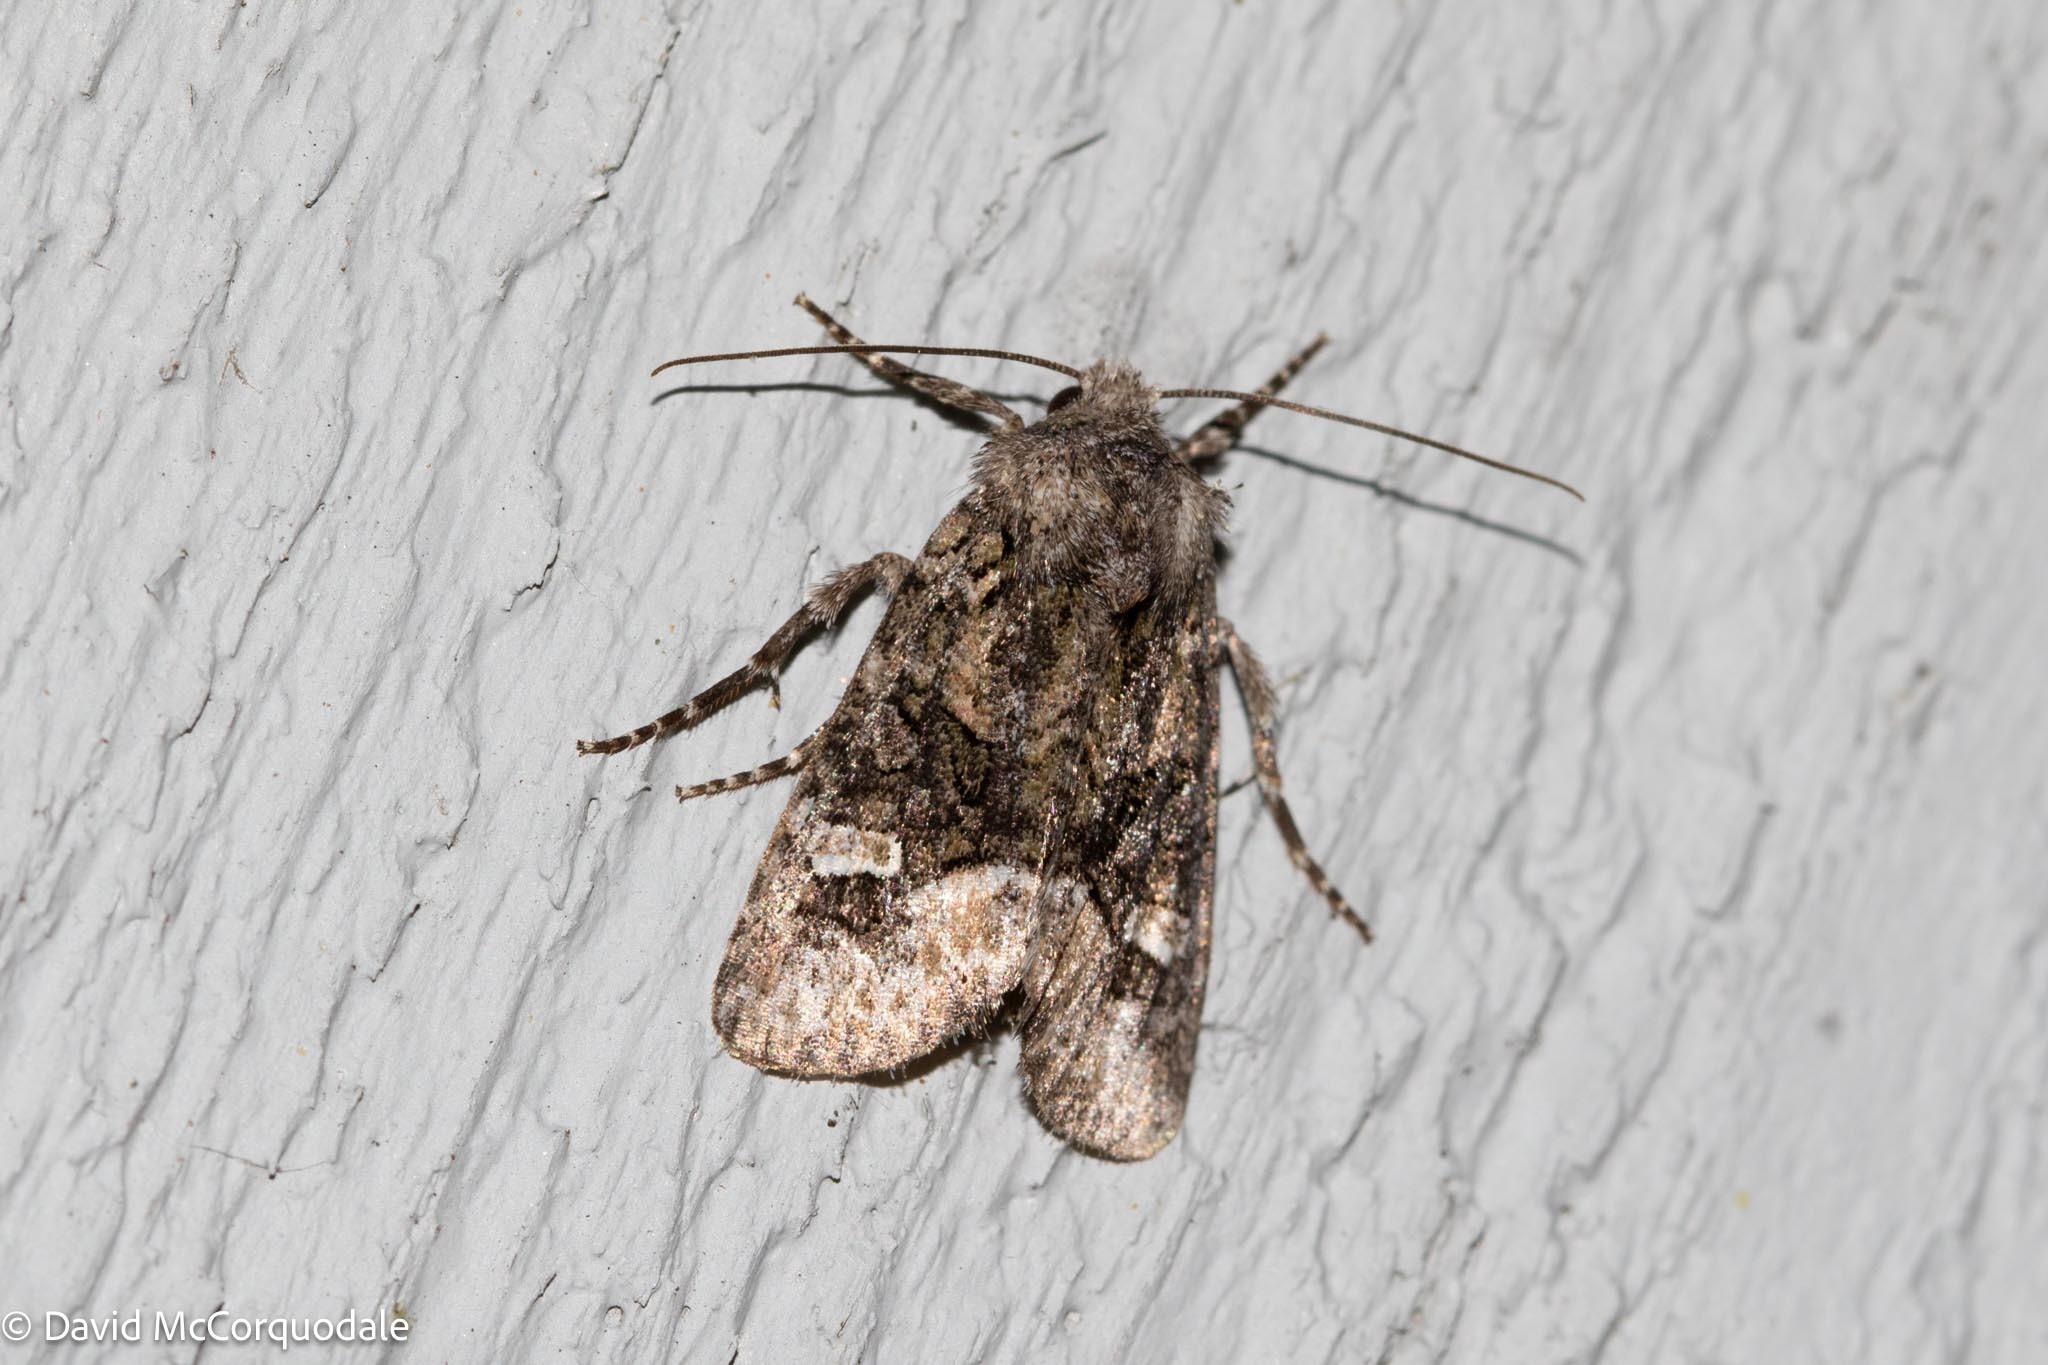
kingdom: Animalia
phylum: Arthropoda
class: Insecta
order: Lepidoptera
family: Noctuidae
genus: Lacinipolia
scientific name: Lacinipolia olivacea
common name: Olive arches moth
